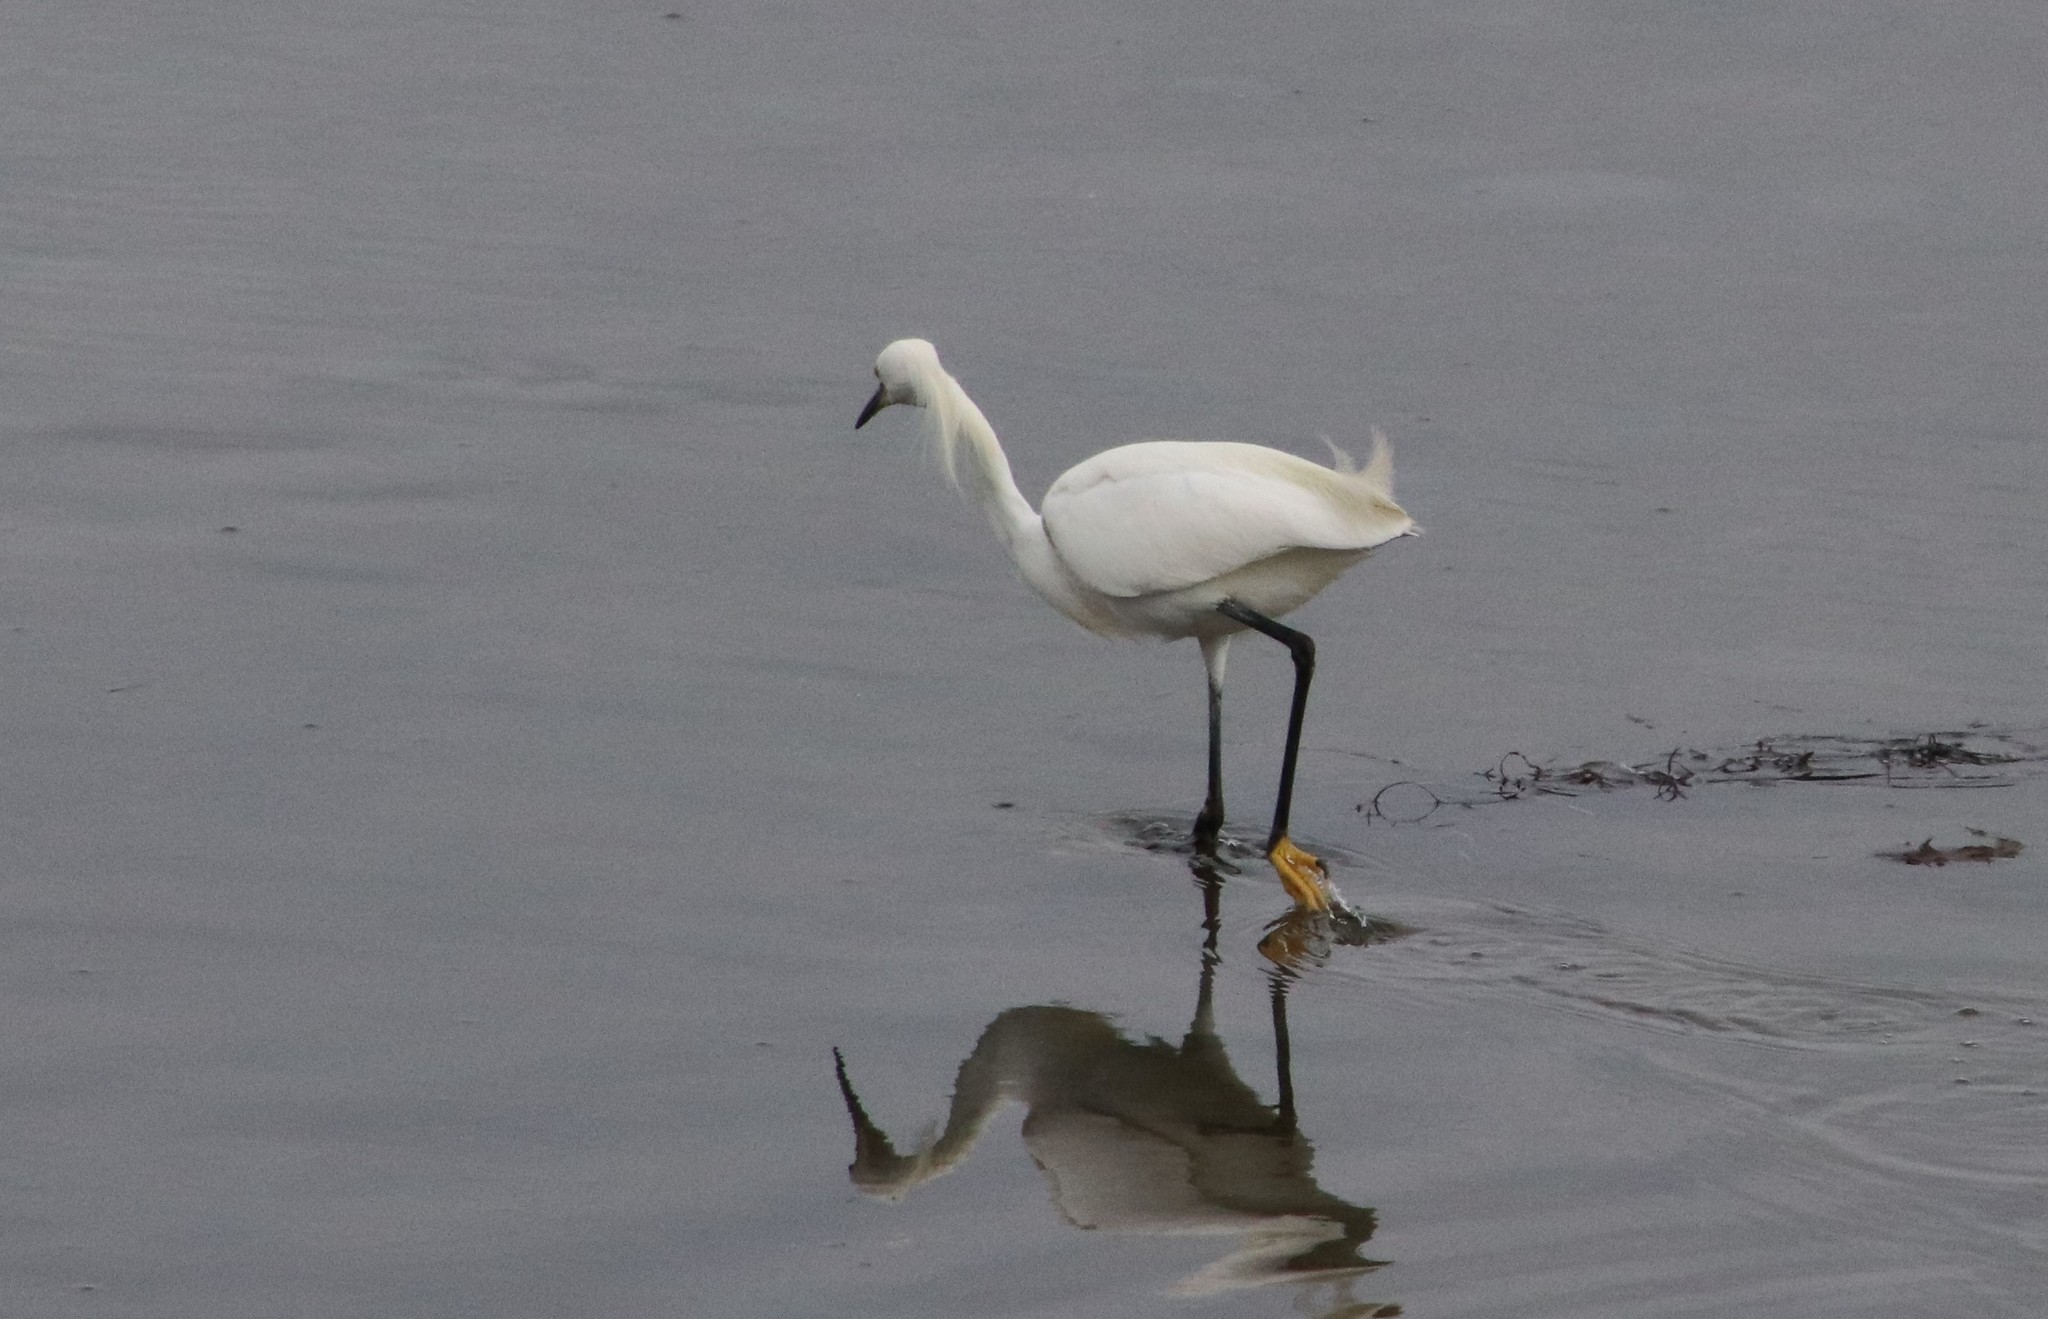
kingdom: Animalia
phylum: Chordata
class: Aves
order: Pelecaniformes
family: Ardeidae
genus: Egretta
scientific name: Egretta thula
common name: Snowy egret
